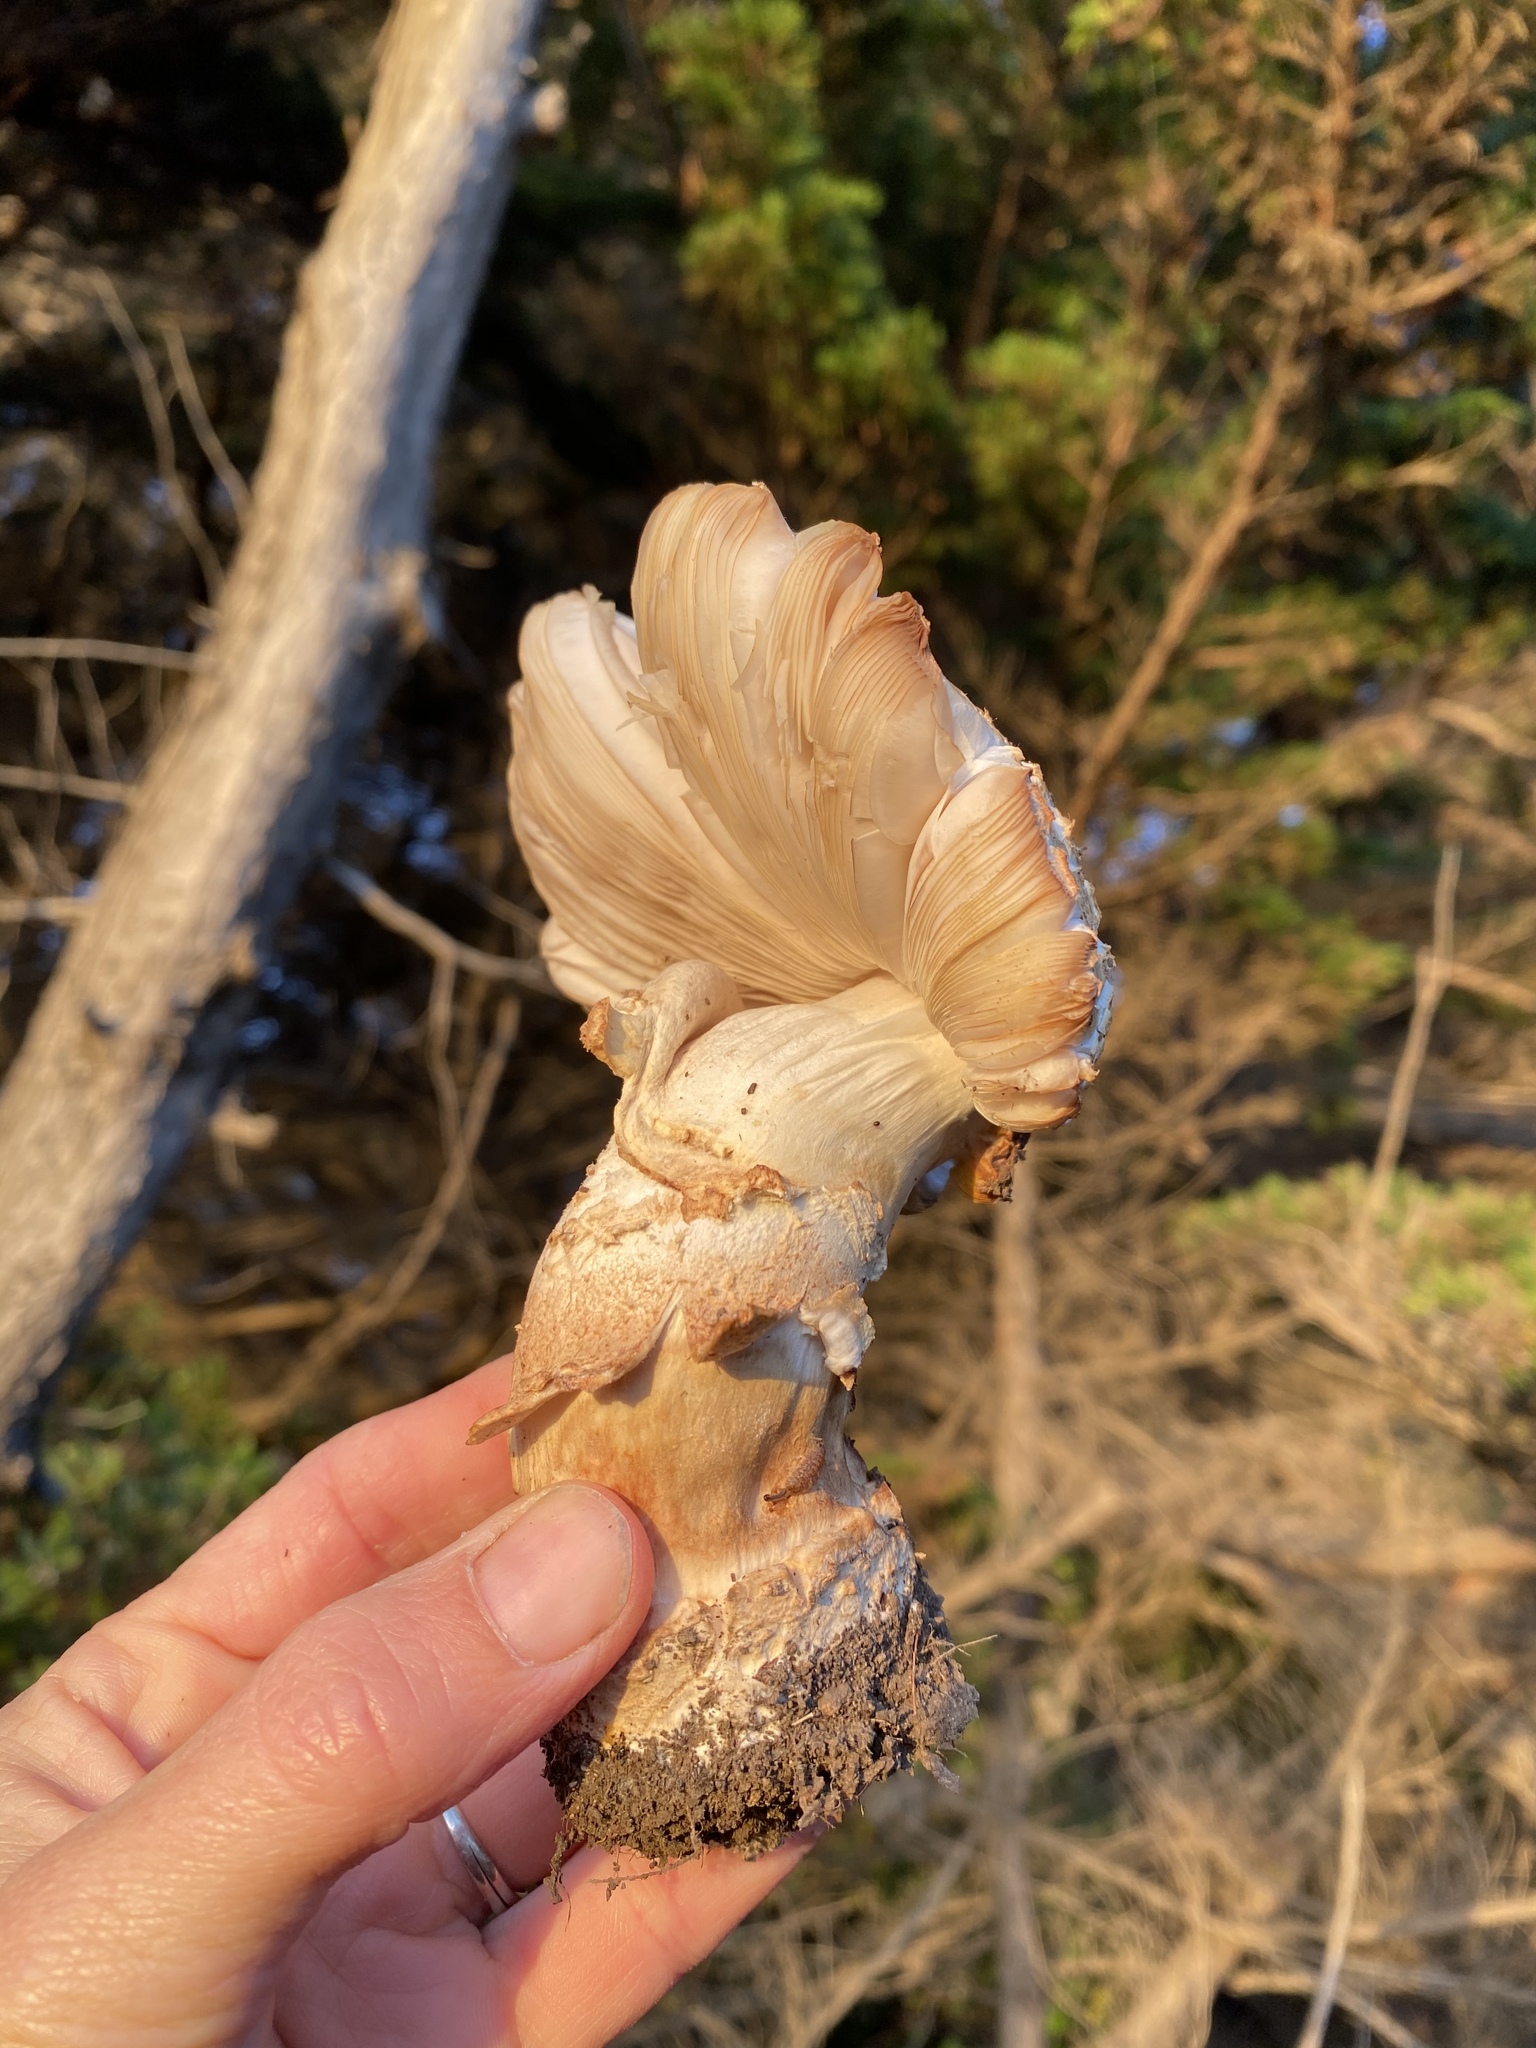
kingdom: Fungi
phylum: Basidiomycota
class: Agaricomycetes
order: Agaricales
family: Amanitaceae
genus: Amanita
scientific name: Amanita novinupta
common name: Blushing bride
